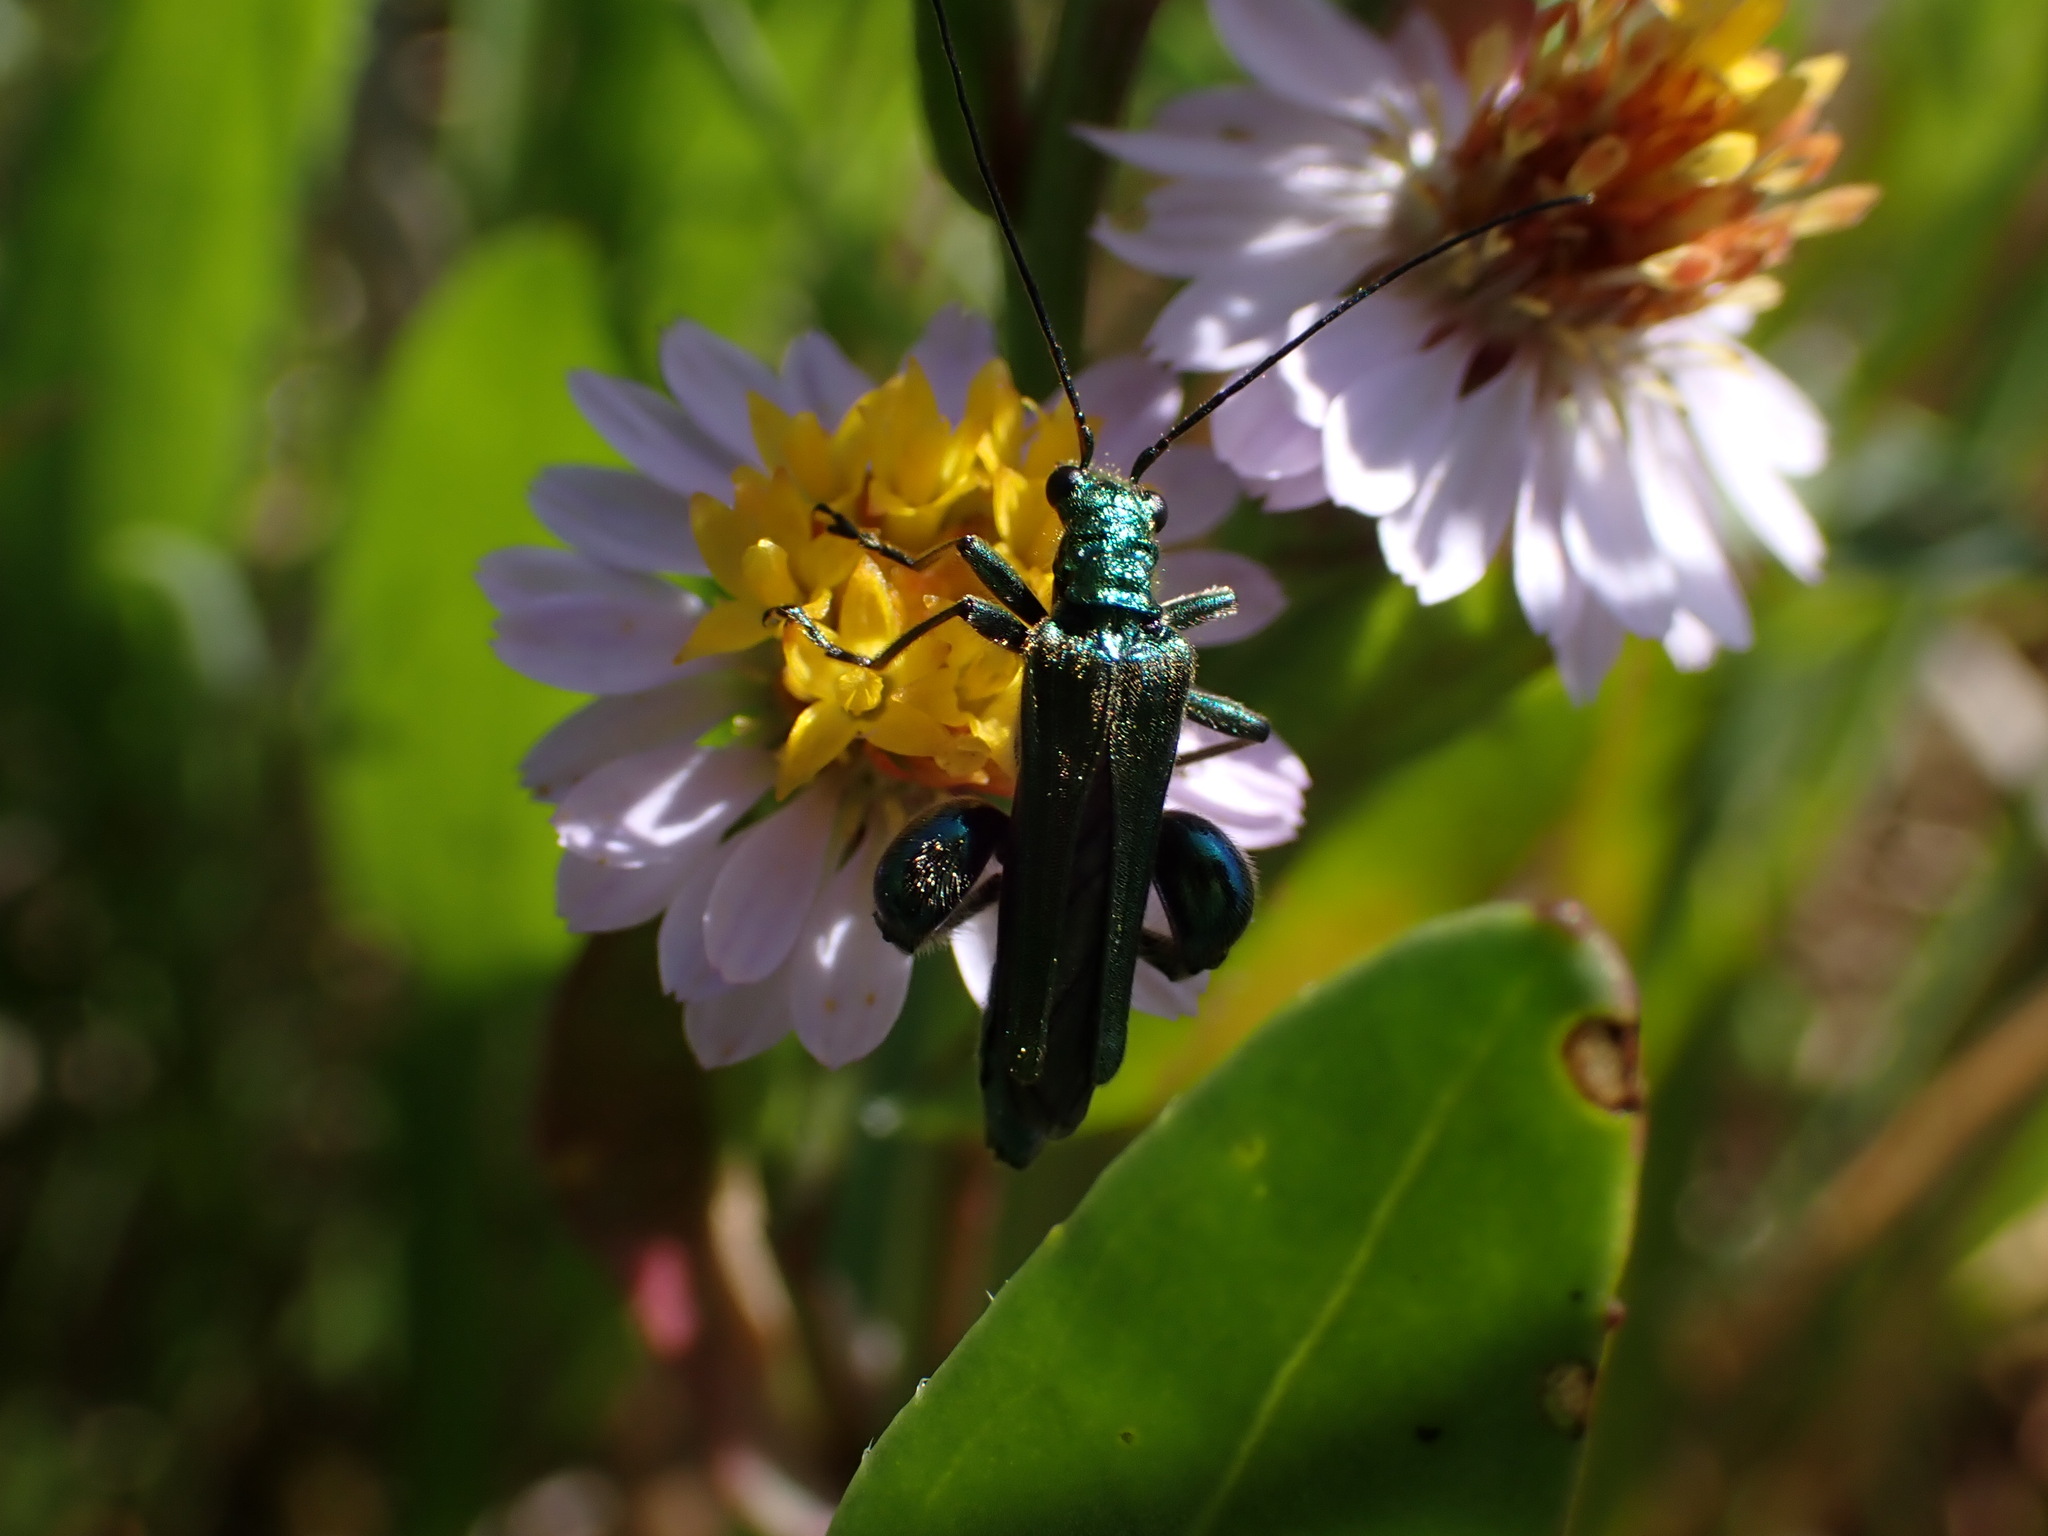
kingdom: Animalia
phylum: Arthropoda
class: Insecta
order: Coleoptera
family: Oedemeridae
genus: Oedemera
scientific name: Oedemera nobilis
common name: Swollen-thighed beetle
